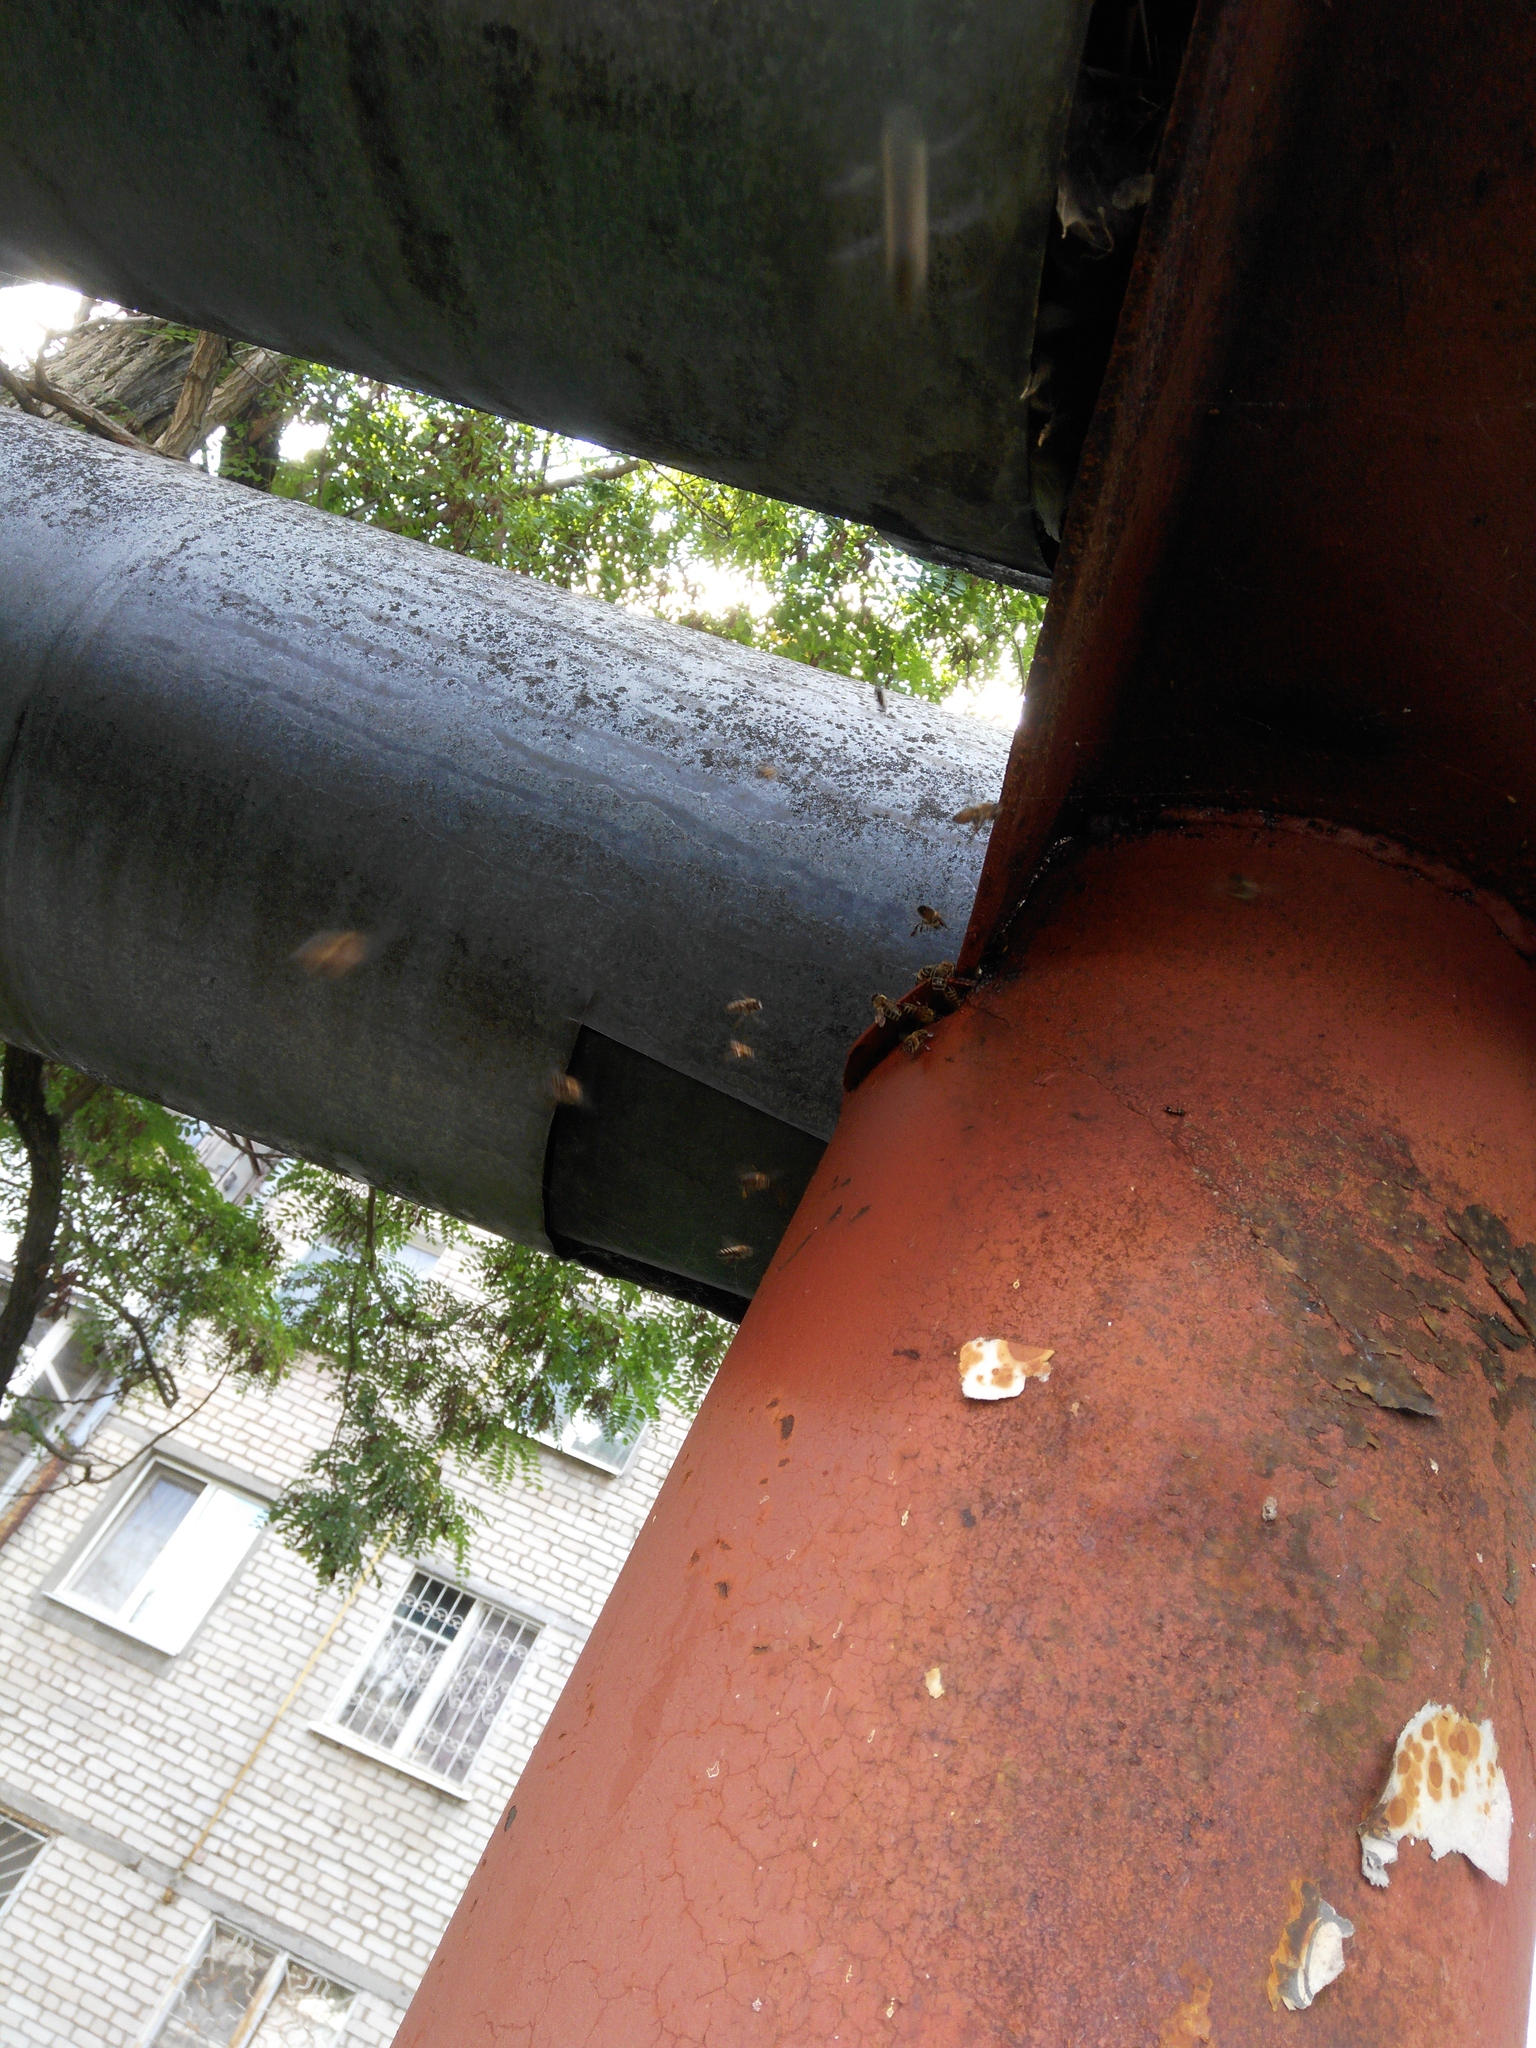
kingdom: Animalia
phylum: Arthropoda
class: Insecta
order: Hymenoptera
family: Apidae
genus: Apis
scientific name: Apis mellifera
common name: Honey bee
